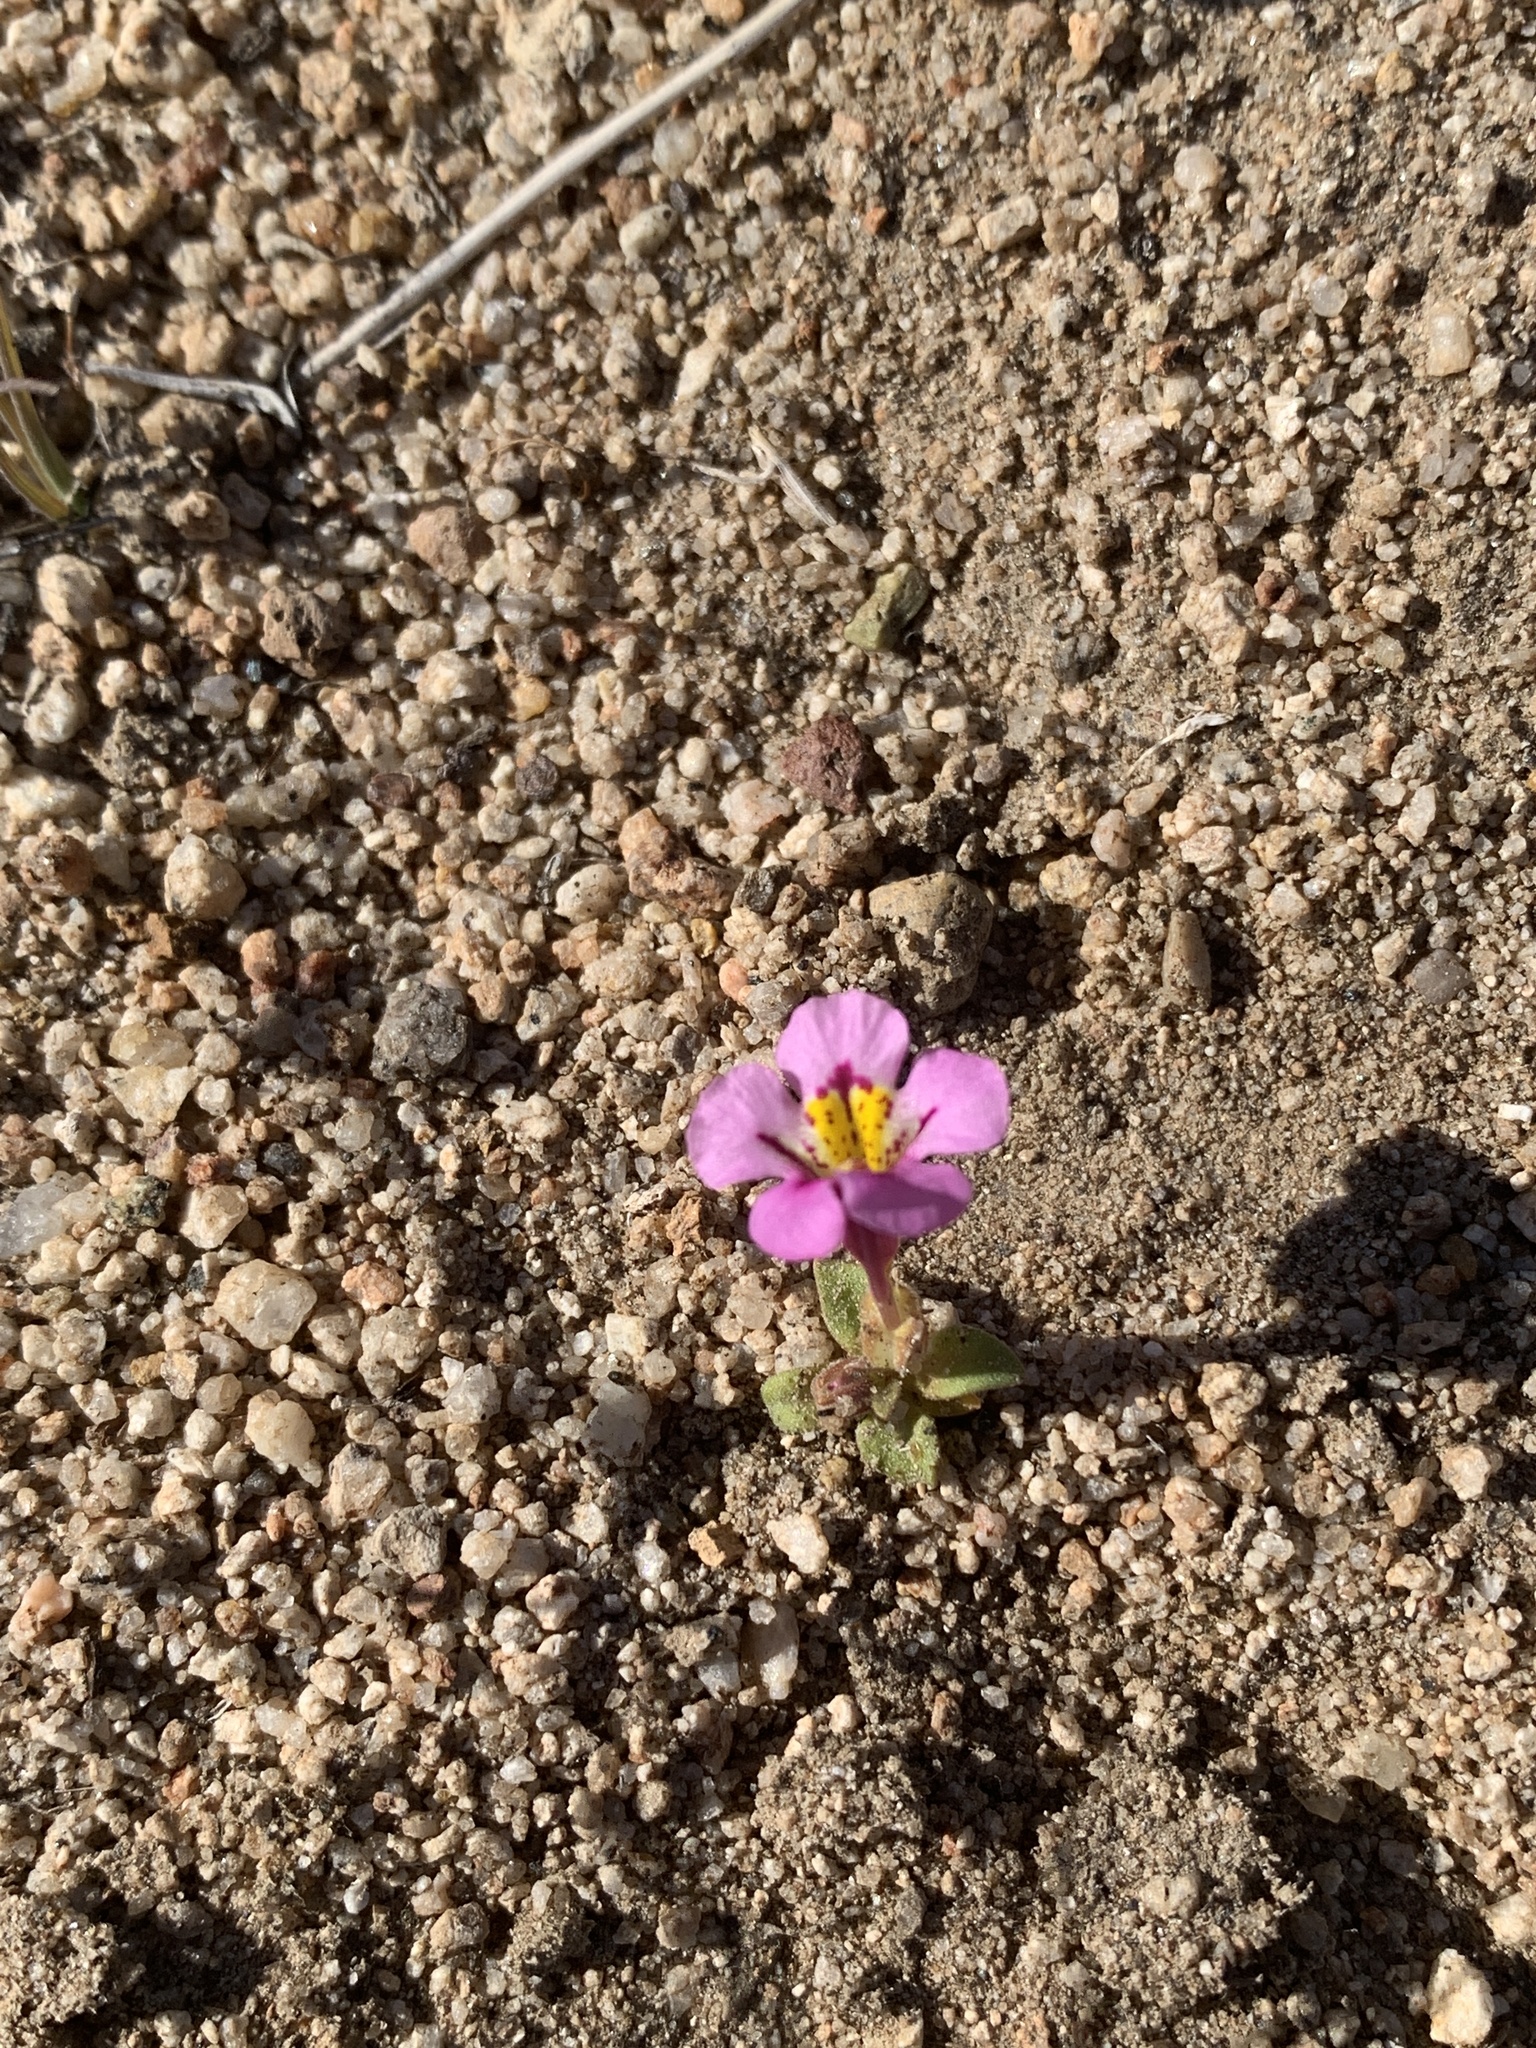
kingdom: Plantae
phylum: Tracheophyta
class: Magnoliopsida
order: Lamiales
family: Phrymaceae
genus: Diplacus
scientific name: Diplacus mephiticus
